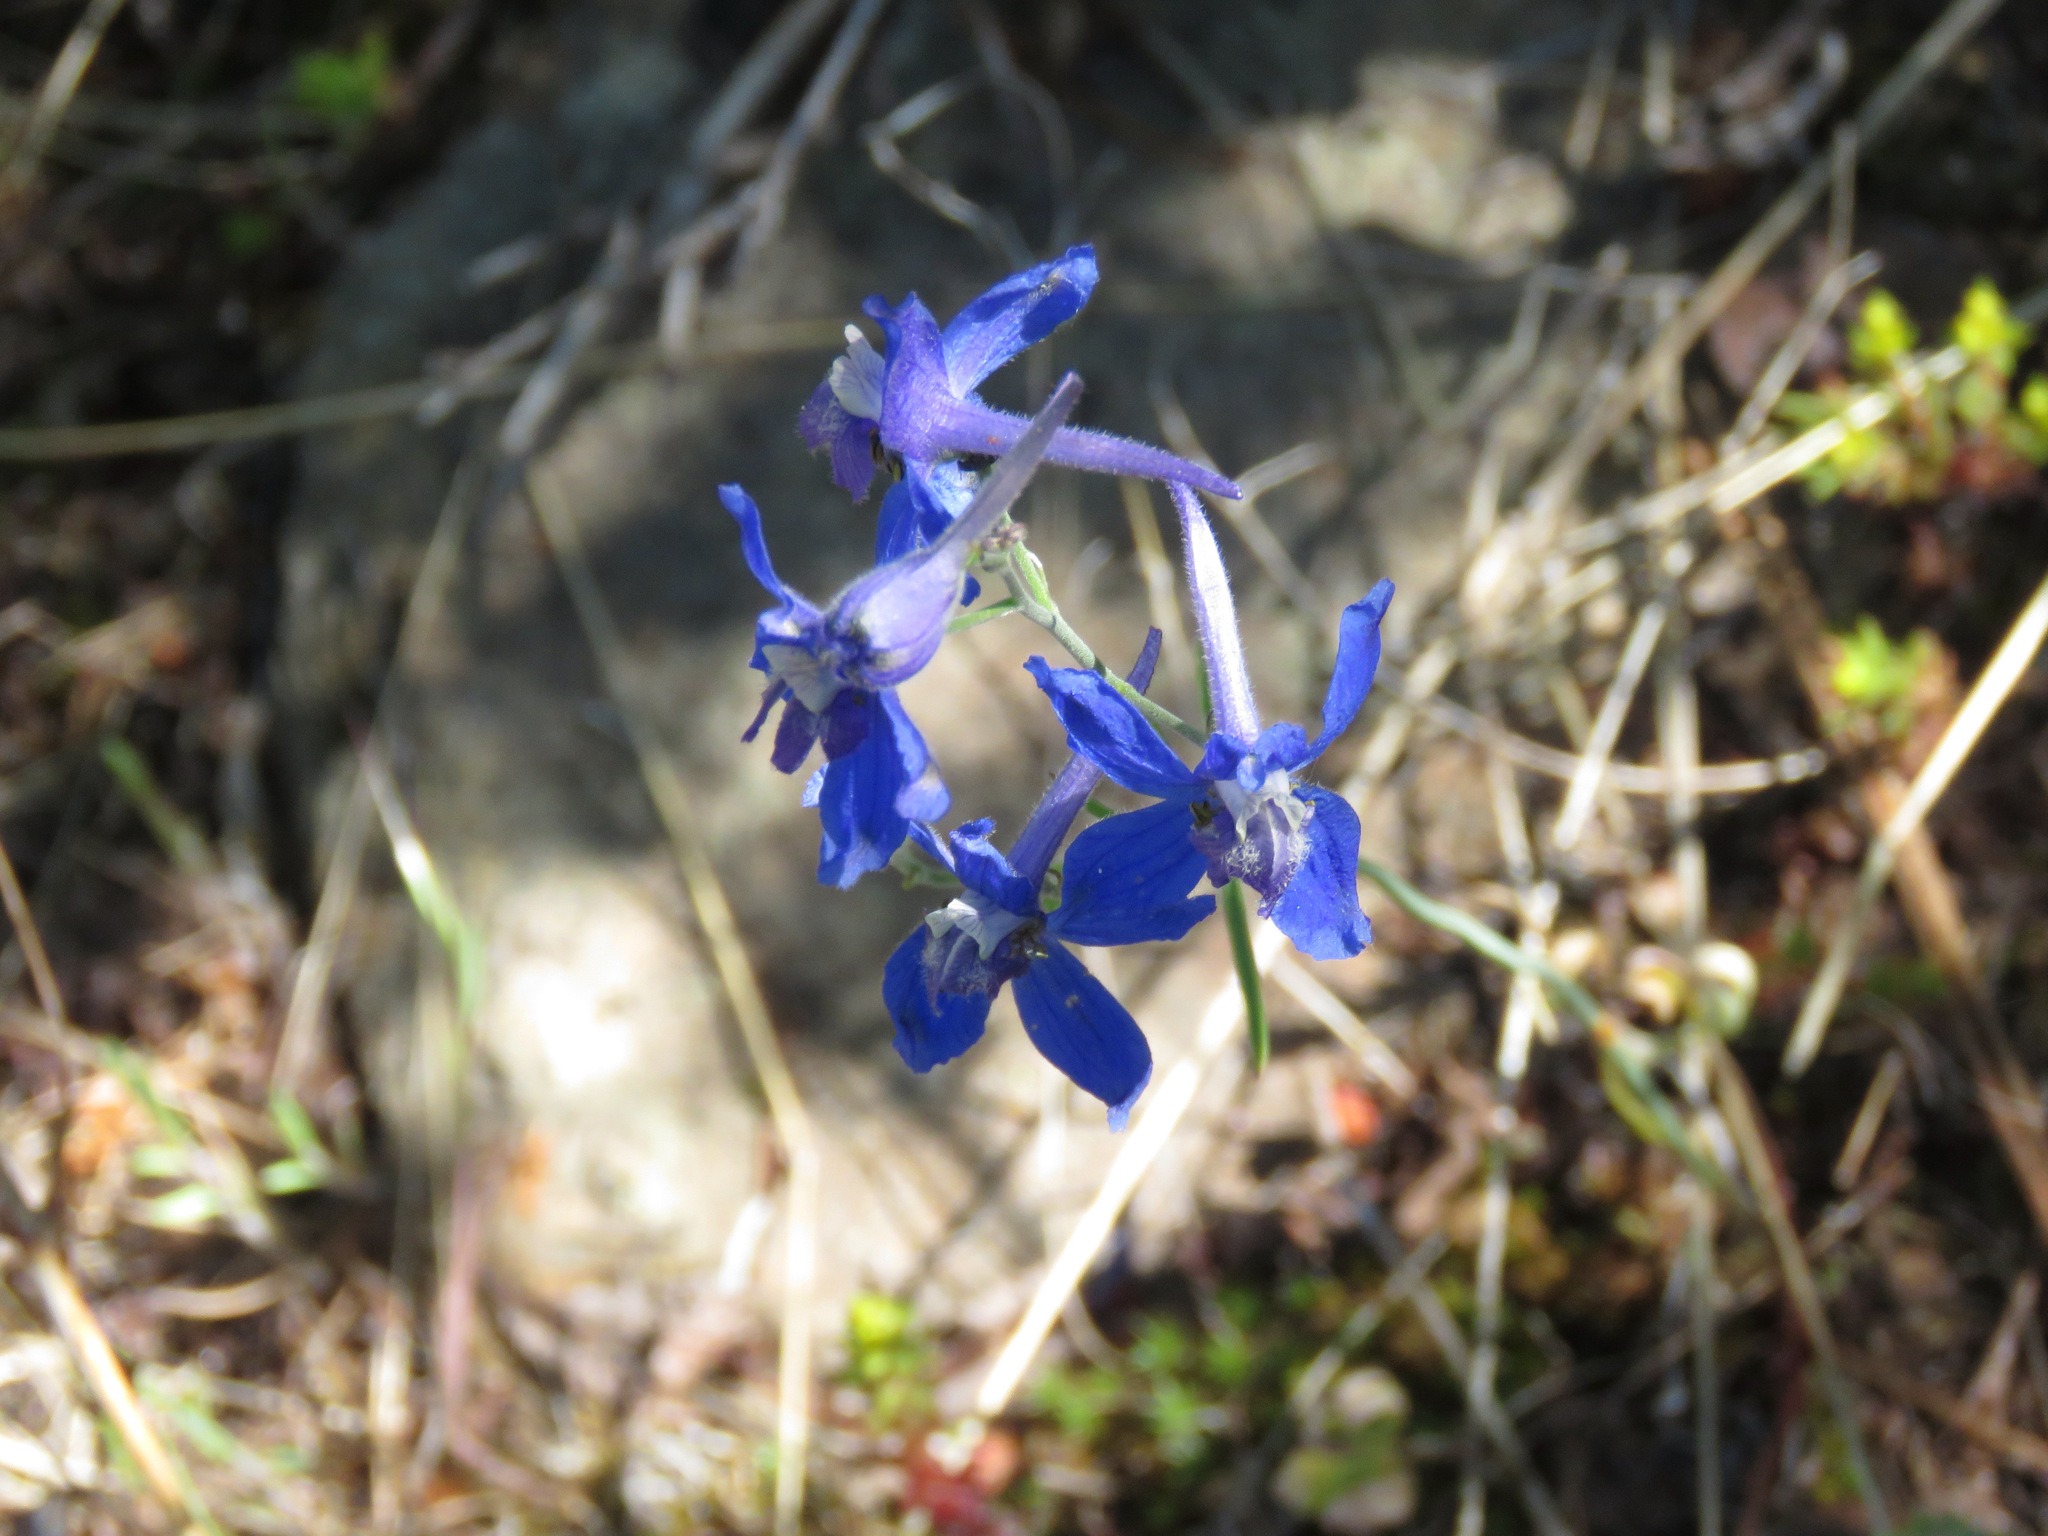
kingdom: Plantae
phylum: Tracheophyta
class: Magnoliopsida
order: Ranunculales
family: Ranunculaceae
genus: Delphinium
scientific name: Delphinium nuttallianum
